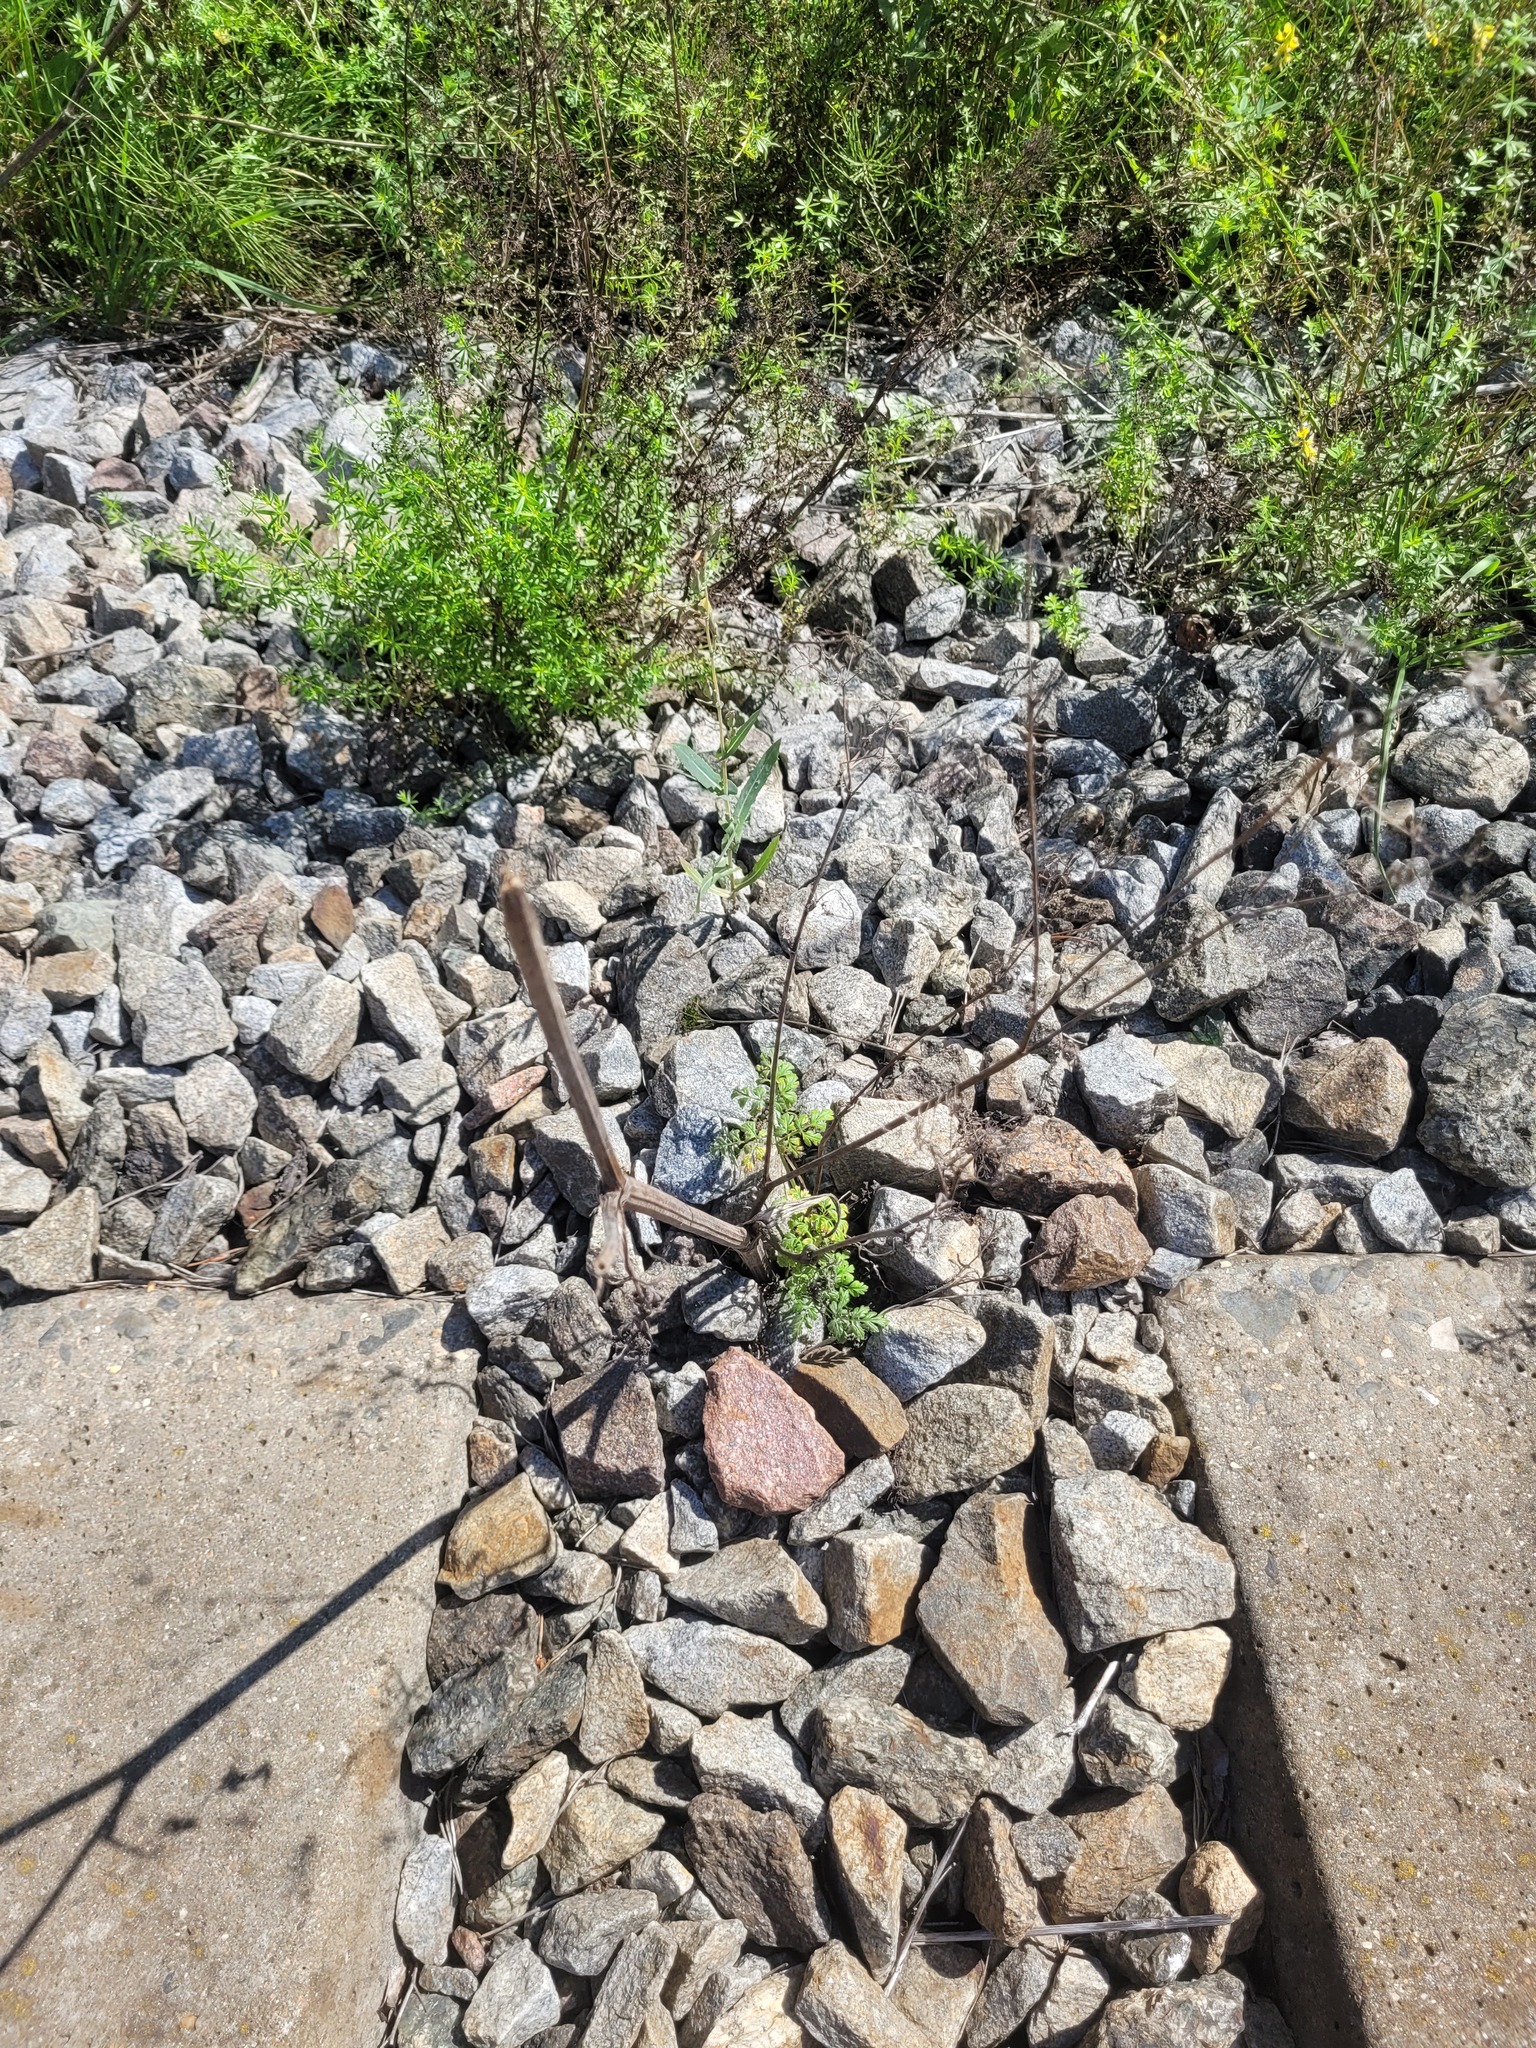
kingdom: Plantae
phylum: Tracheophyta
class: Magnoliopsida
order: Apiales
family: Apiaceae
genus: Anthriscus
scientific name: Anthriscus sylvestris
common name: Cow parsley
